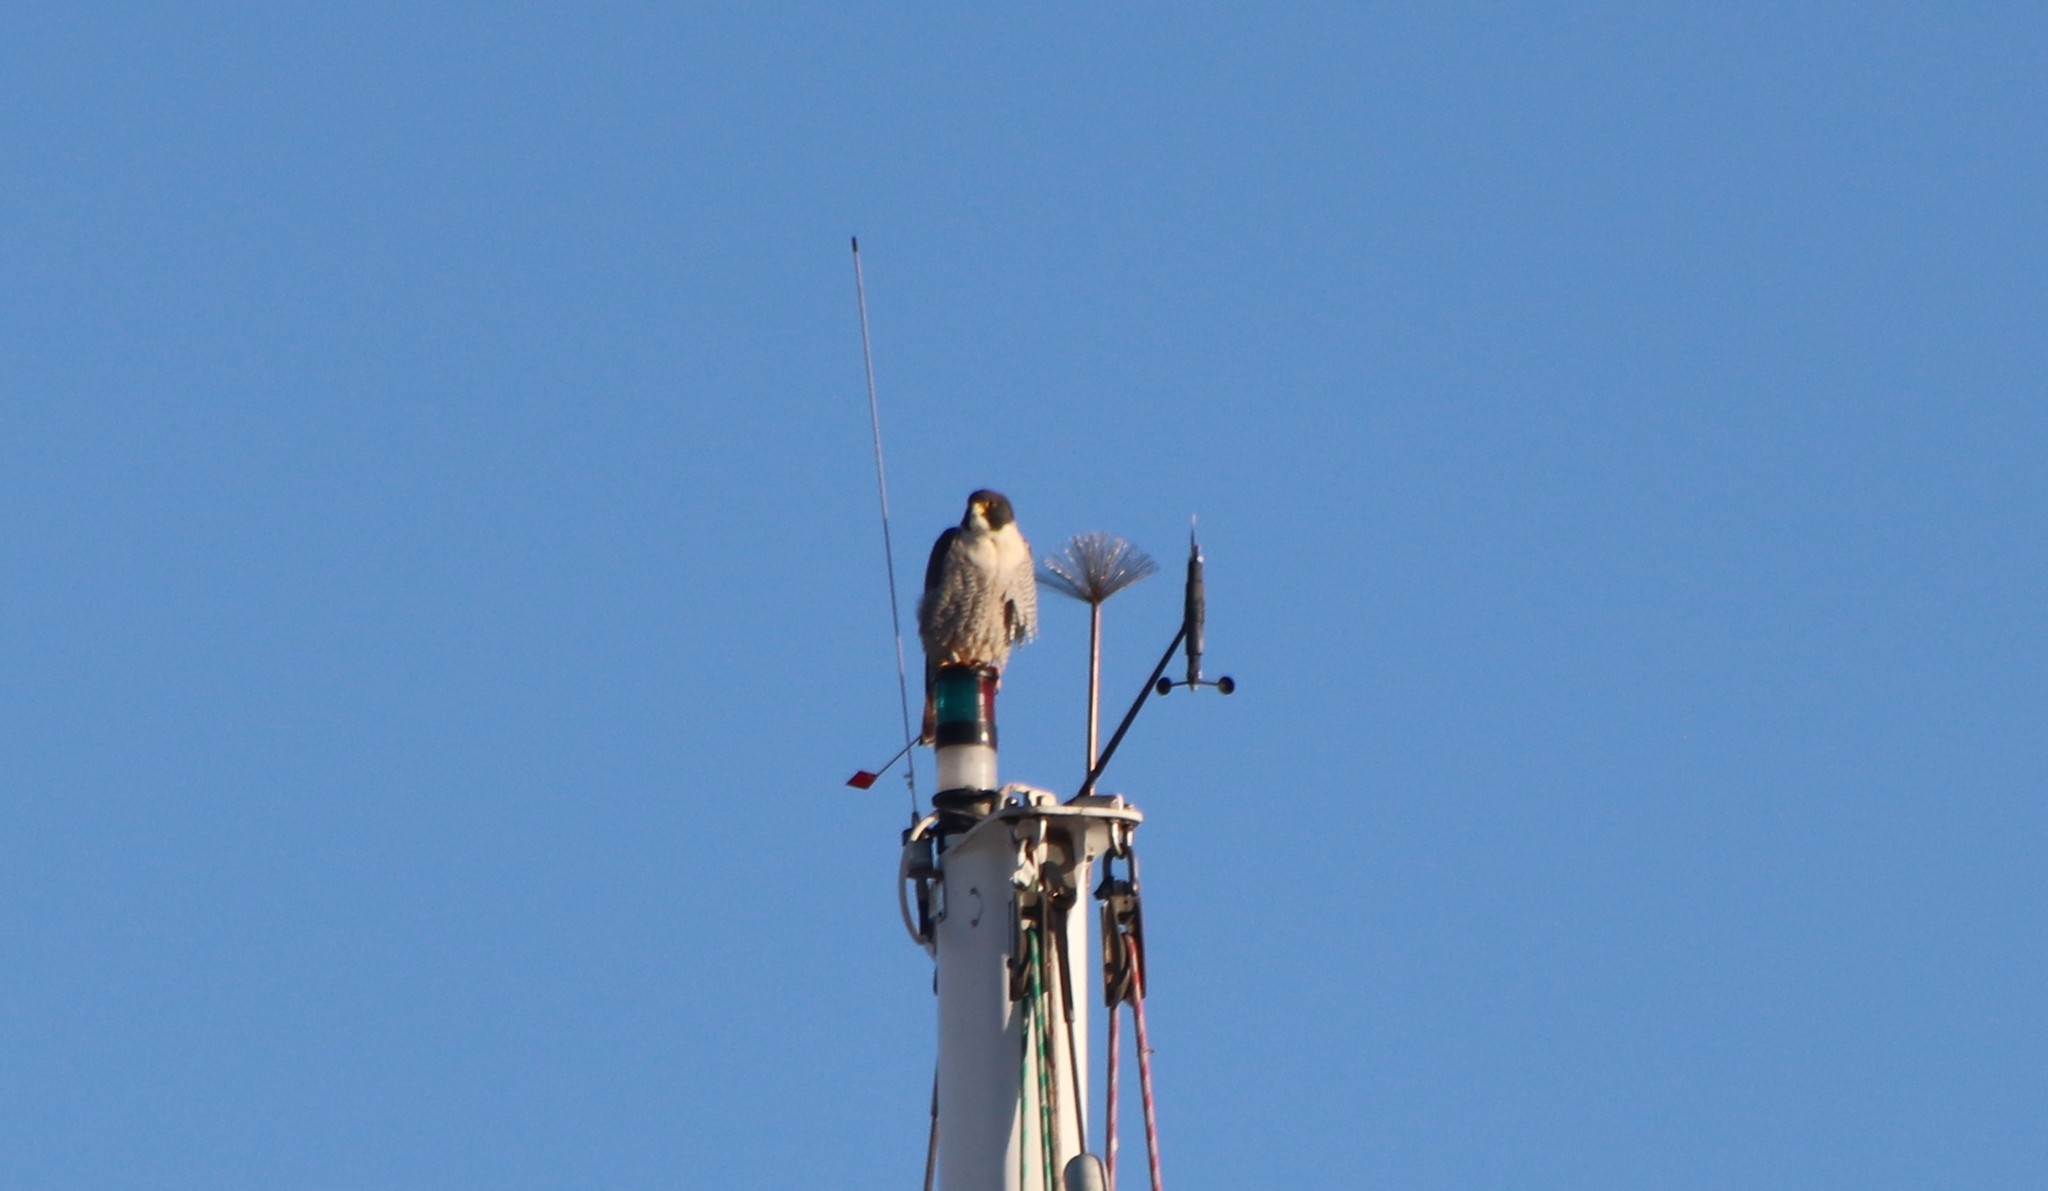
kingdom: Animalia
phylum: Chordata
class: Aves
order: Falconiformes
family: Falconidae
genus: Falco
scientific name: Falco peregrinus
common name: Peregrine falcon
